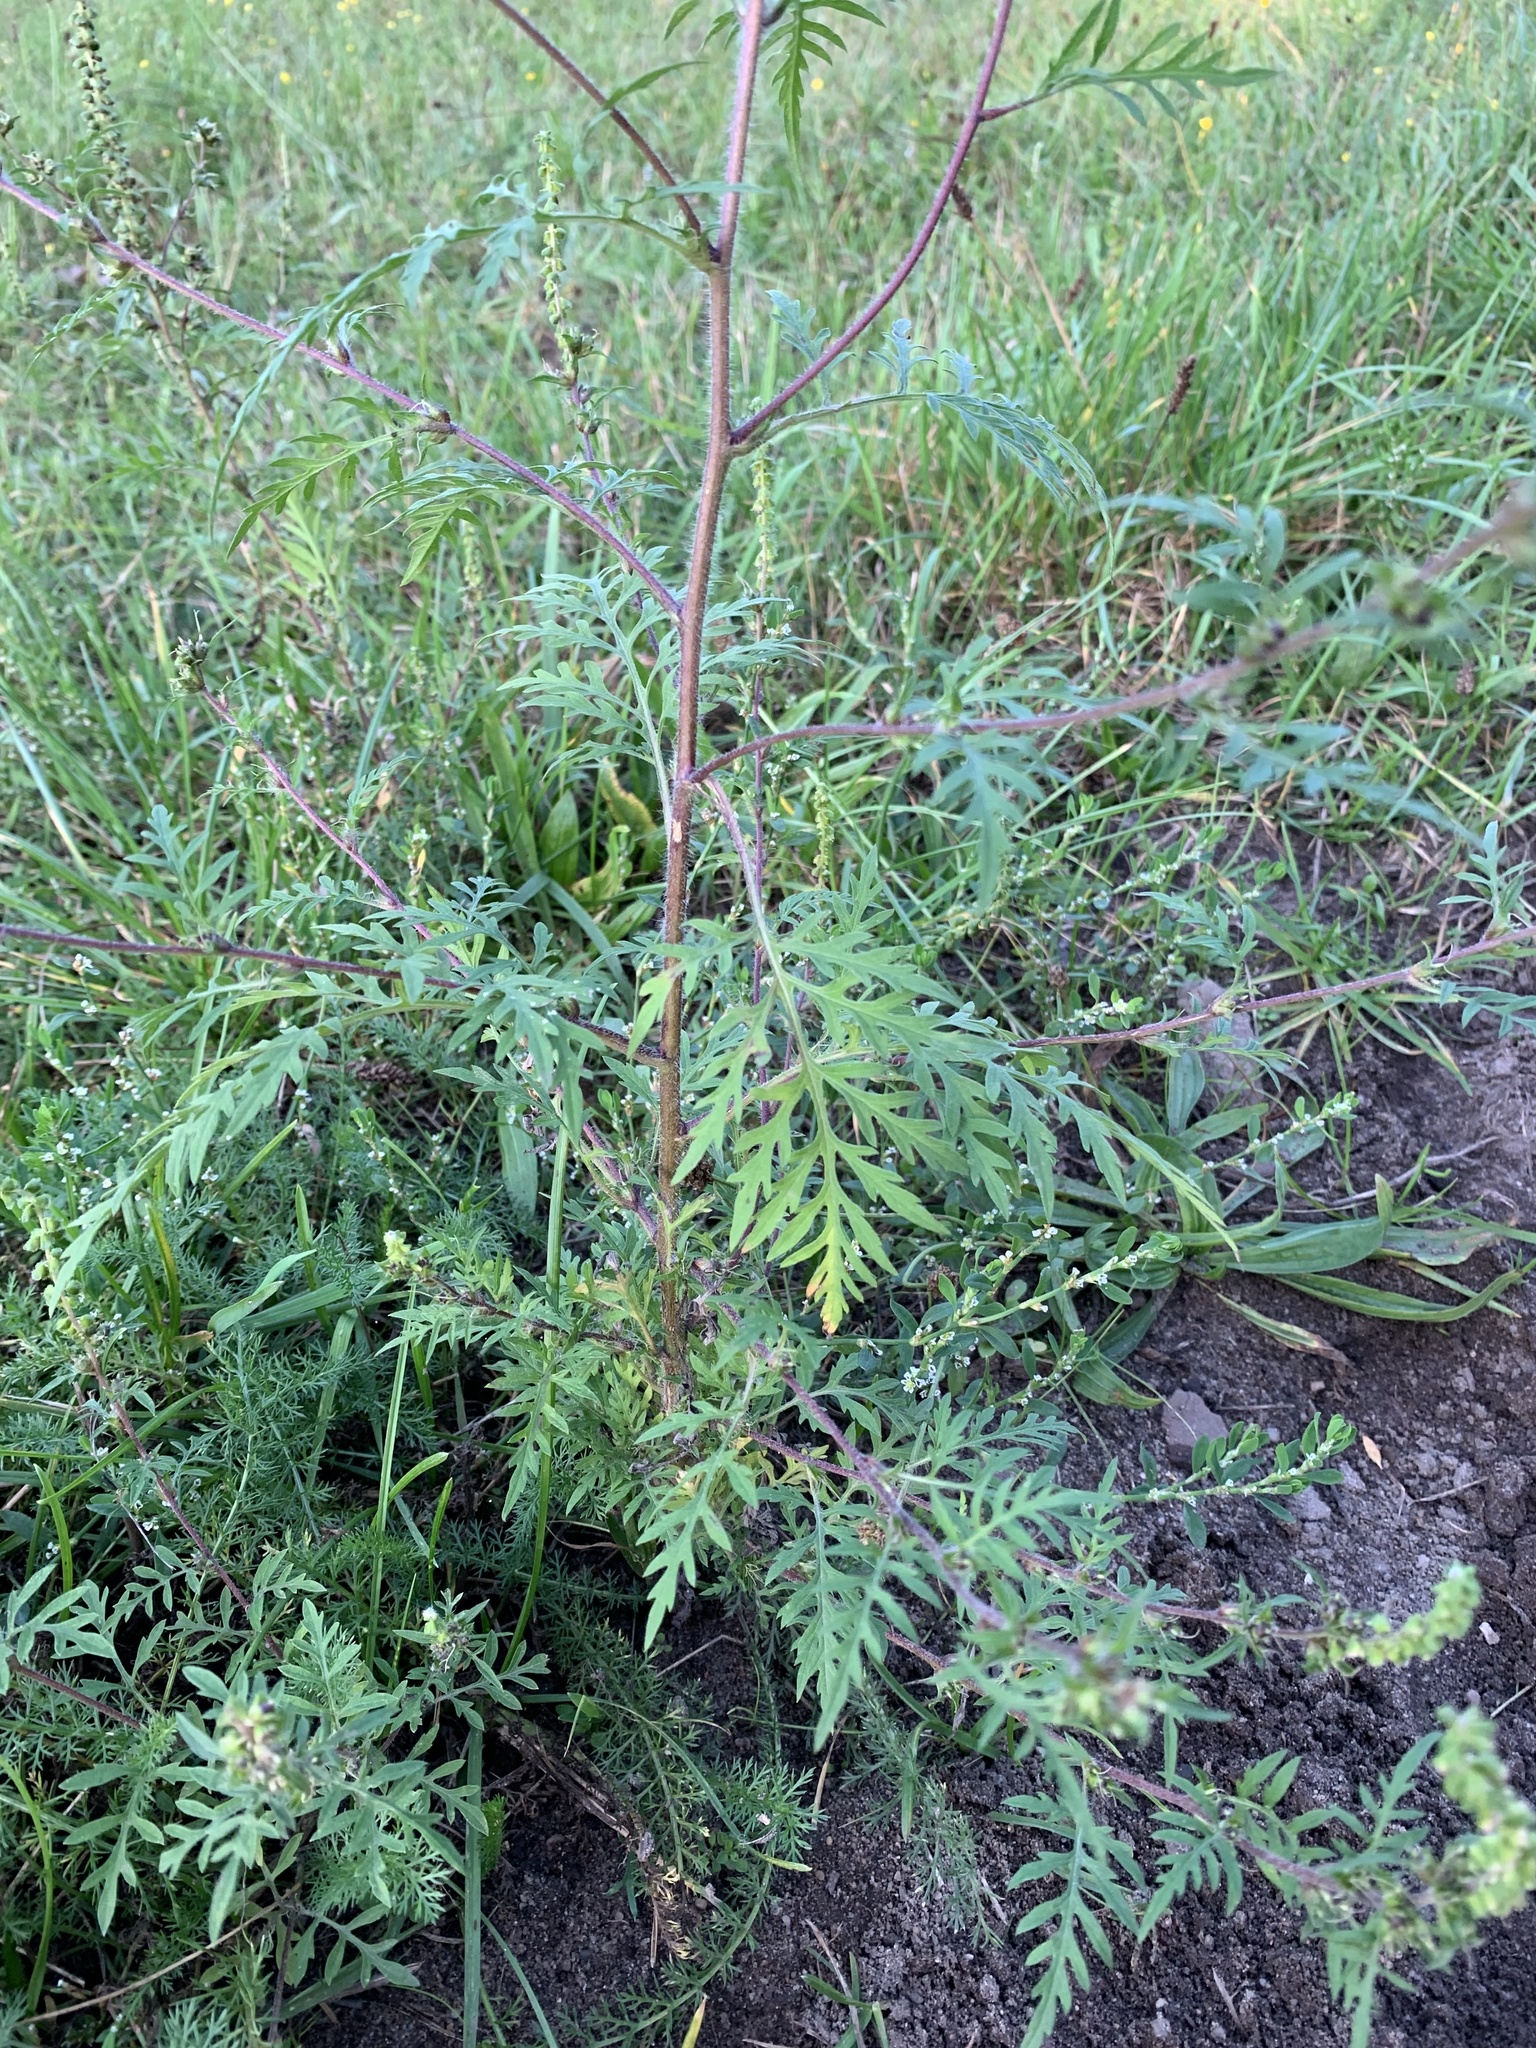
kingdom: Plantae
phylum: Tracheophyta
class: Magnoliopsida
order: Asterales
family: Asteraceae
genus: Ambrosia
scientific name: Ambrosia artemisiifolia
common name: Annual ragweed
